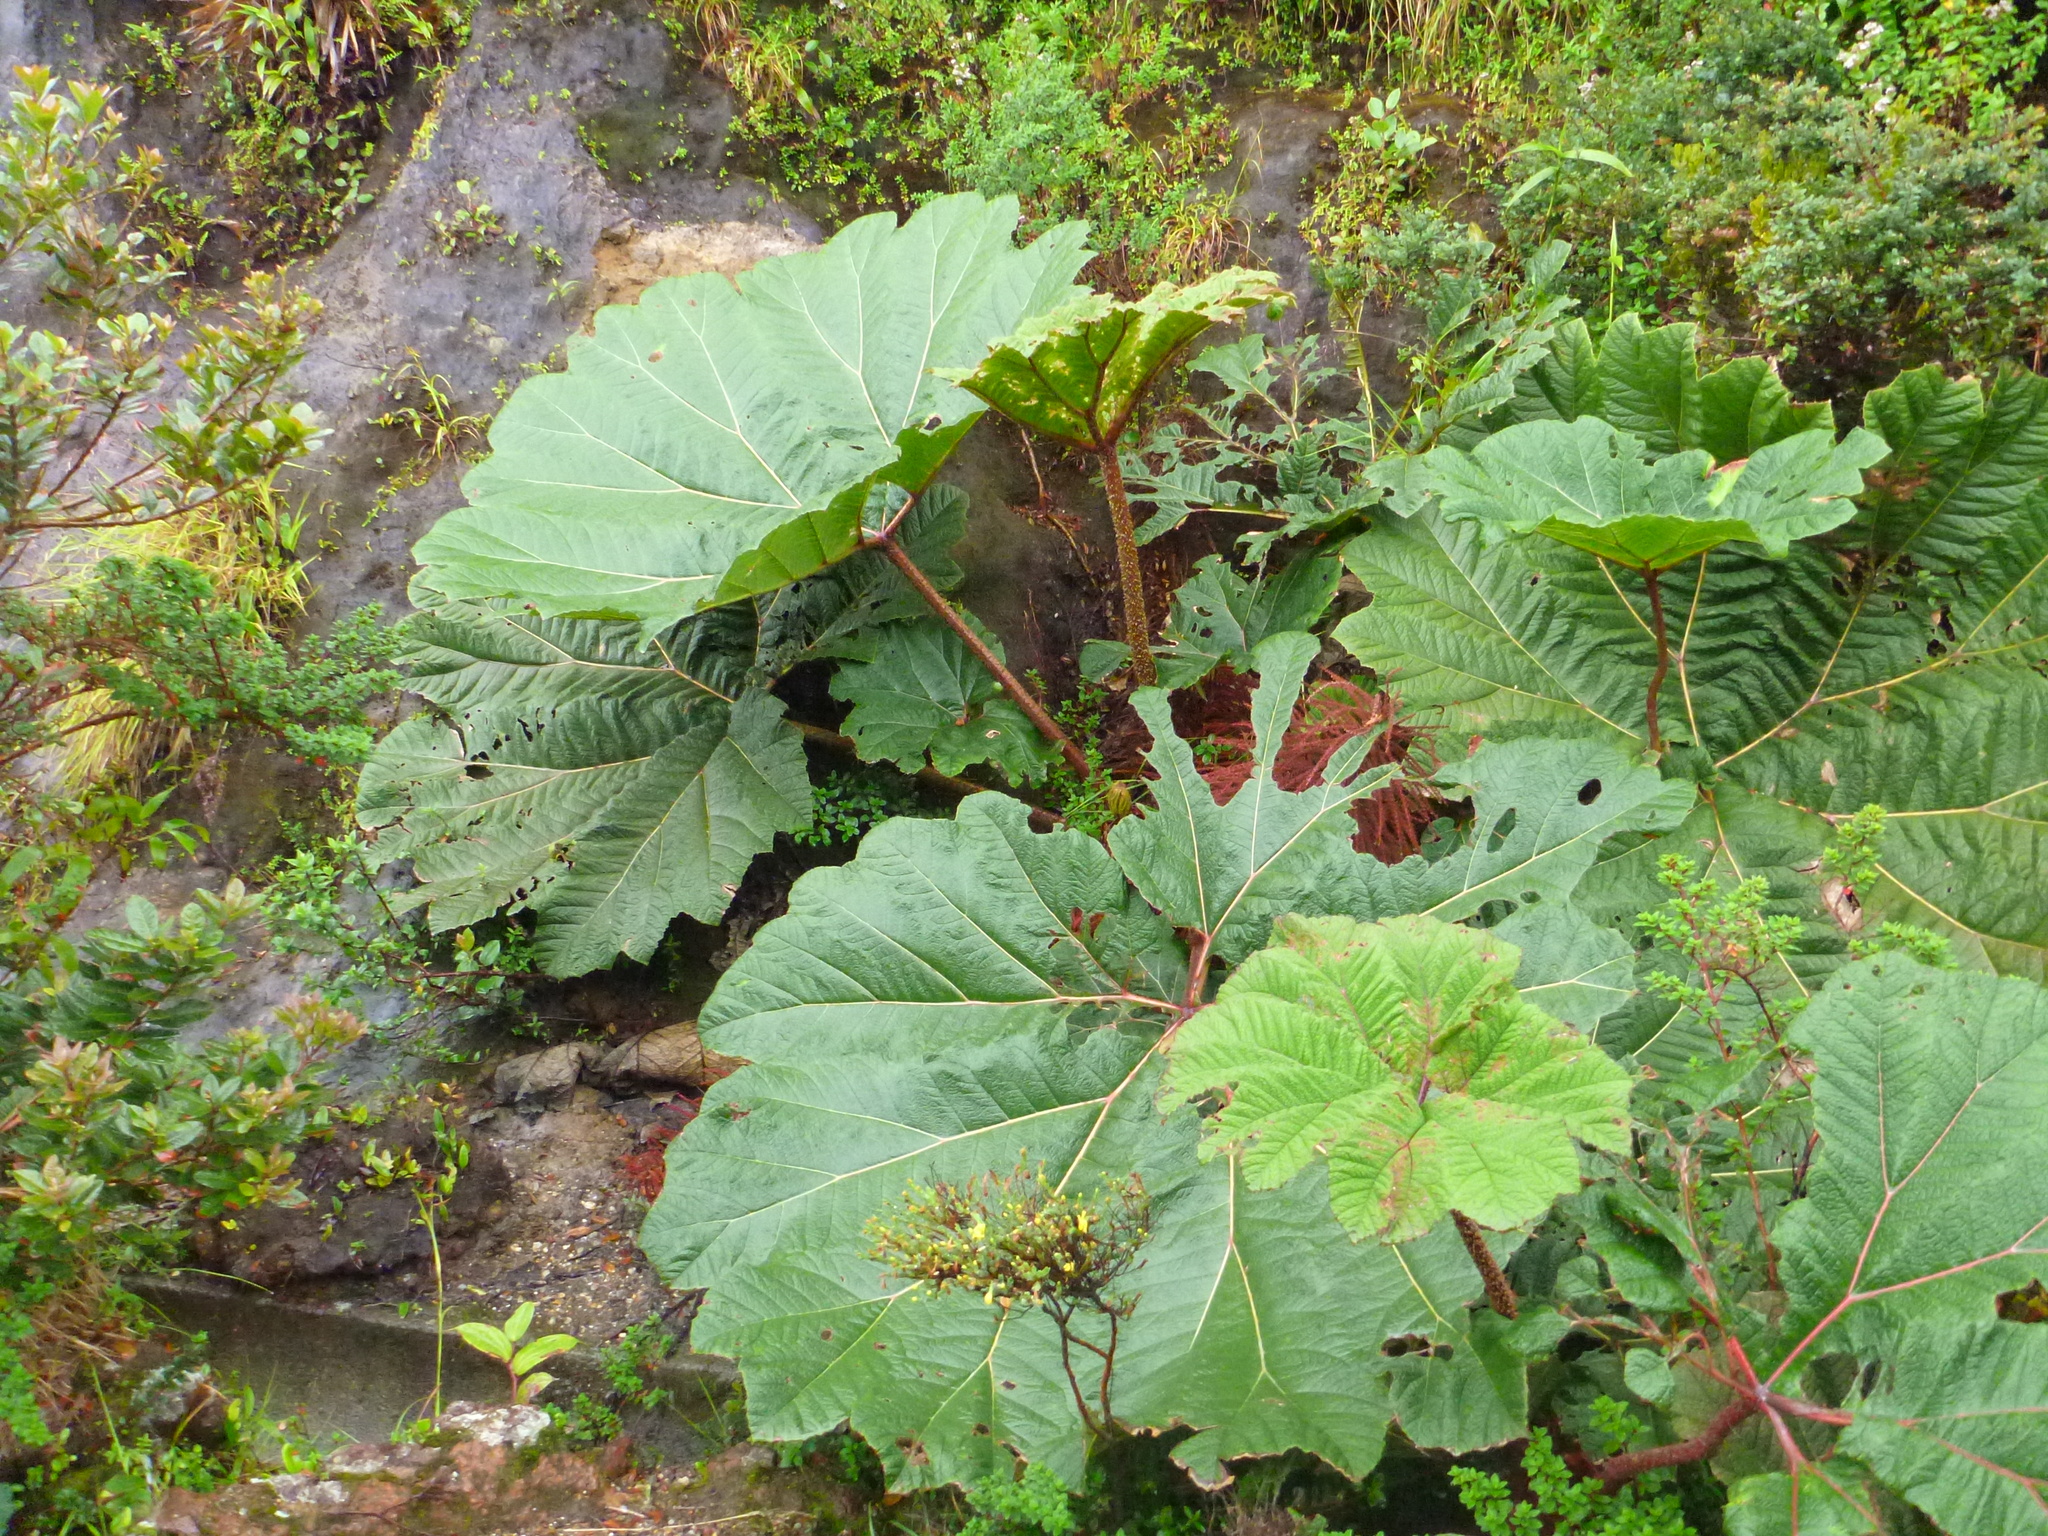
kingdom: Plantae
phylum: Tracheophyta
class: Magnoliopsida
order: Gunnerales
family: Gunneraceae
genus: Gunnera
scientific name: Gunnera insignis
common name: Poorman's umbrella
